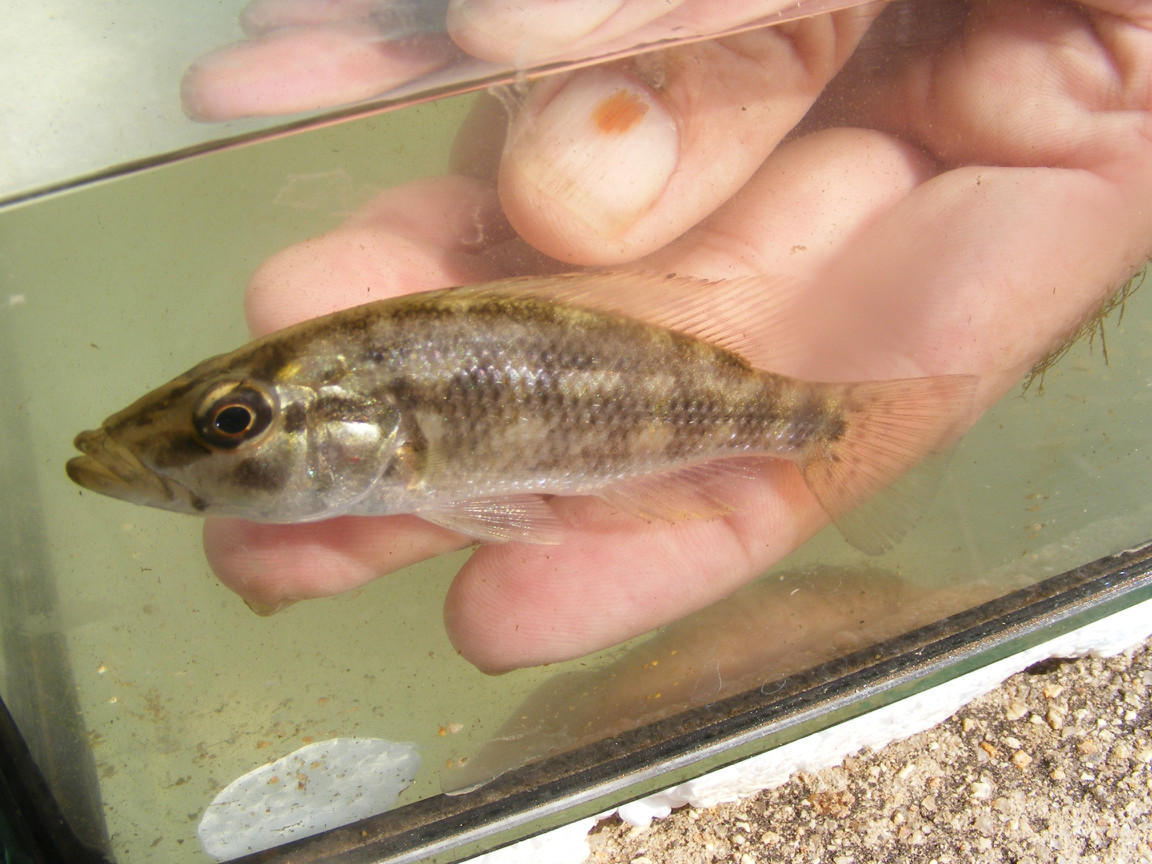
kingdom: Animalia
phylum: Chordata
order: Perciformes
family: Cichlidae
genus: Serranochromis
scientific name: Serranochromis meridianus
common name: Lowveld largemouth
